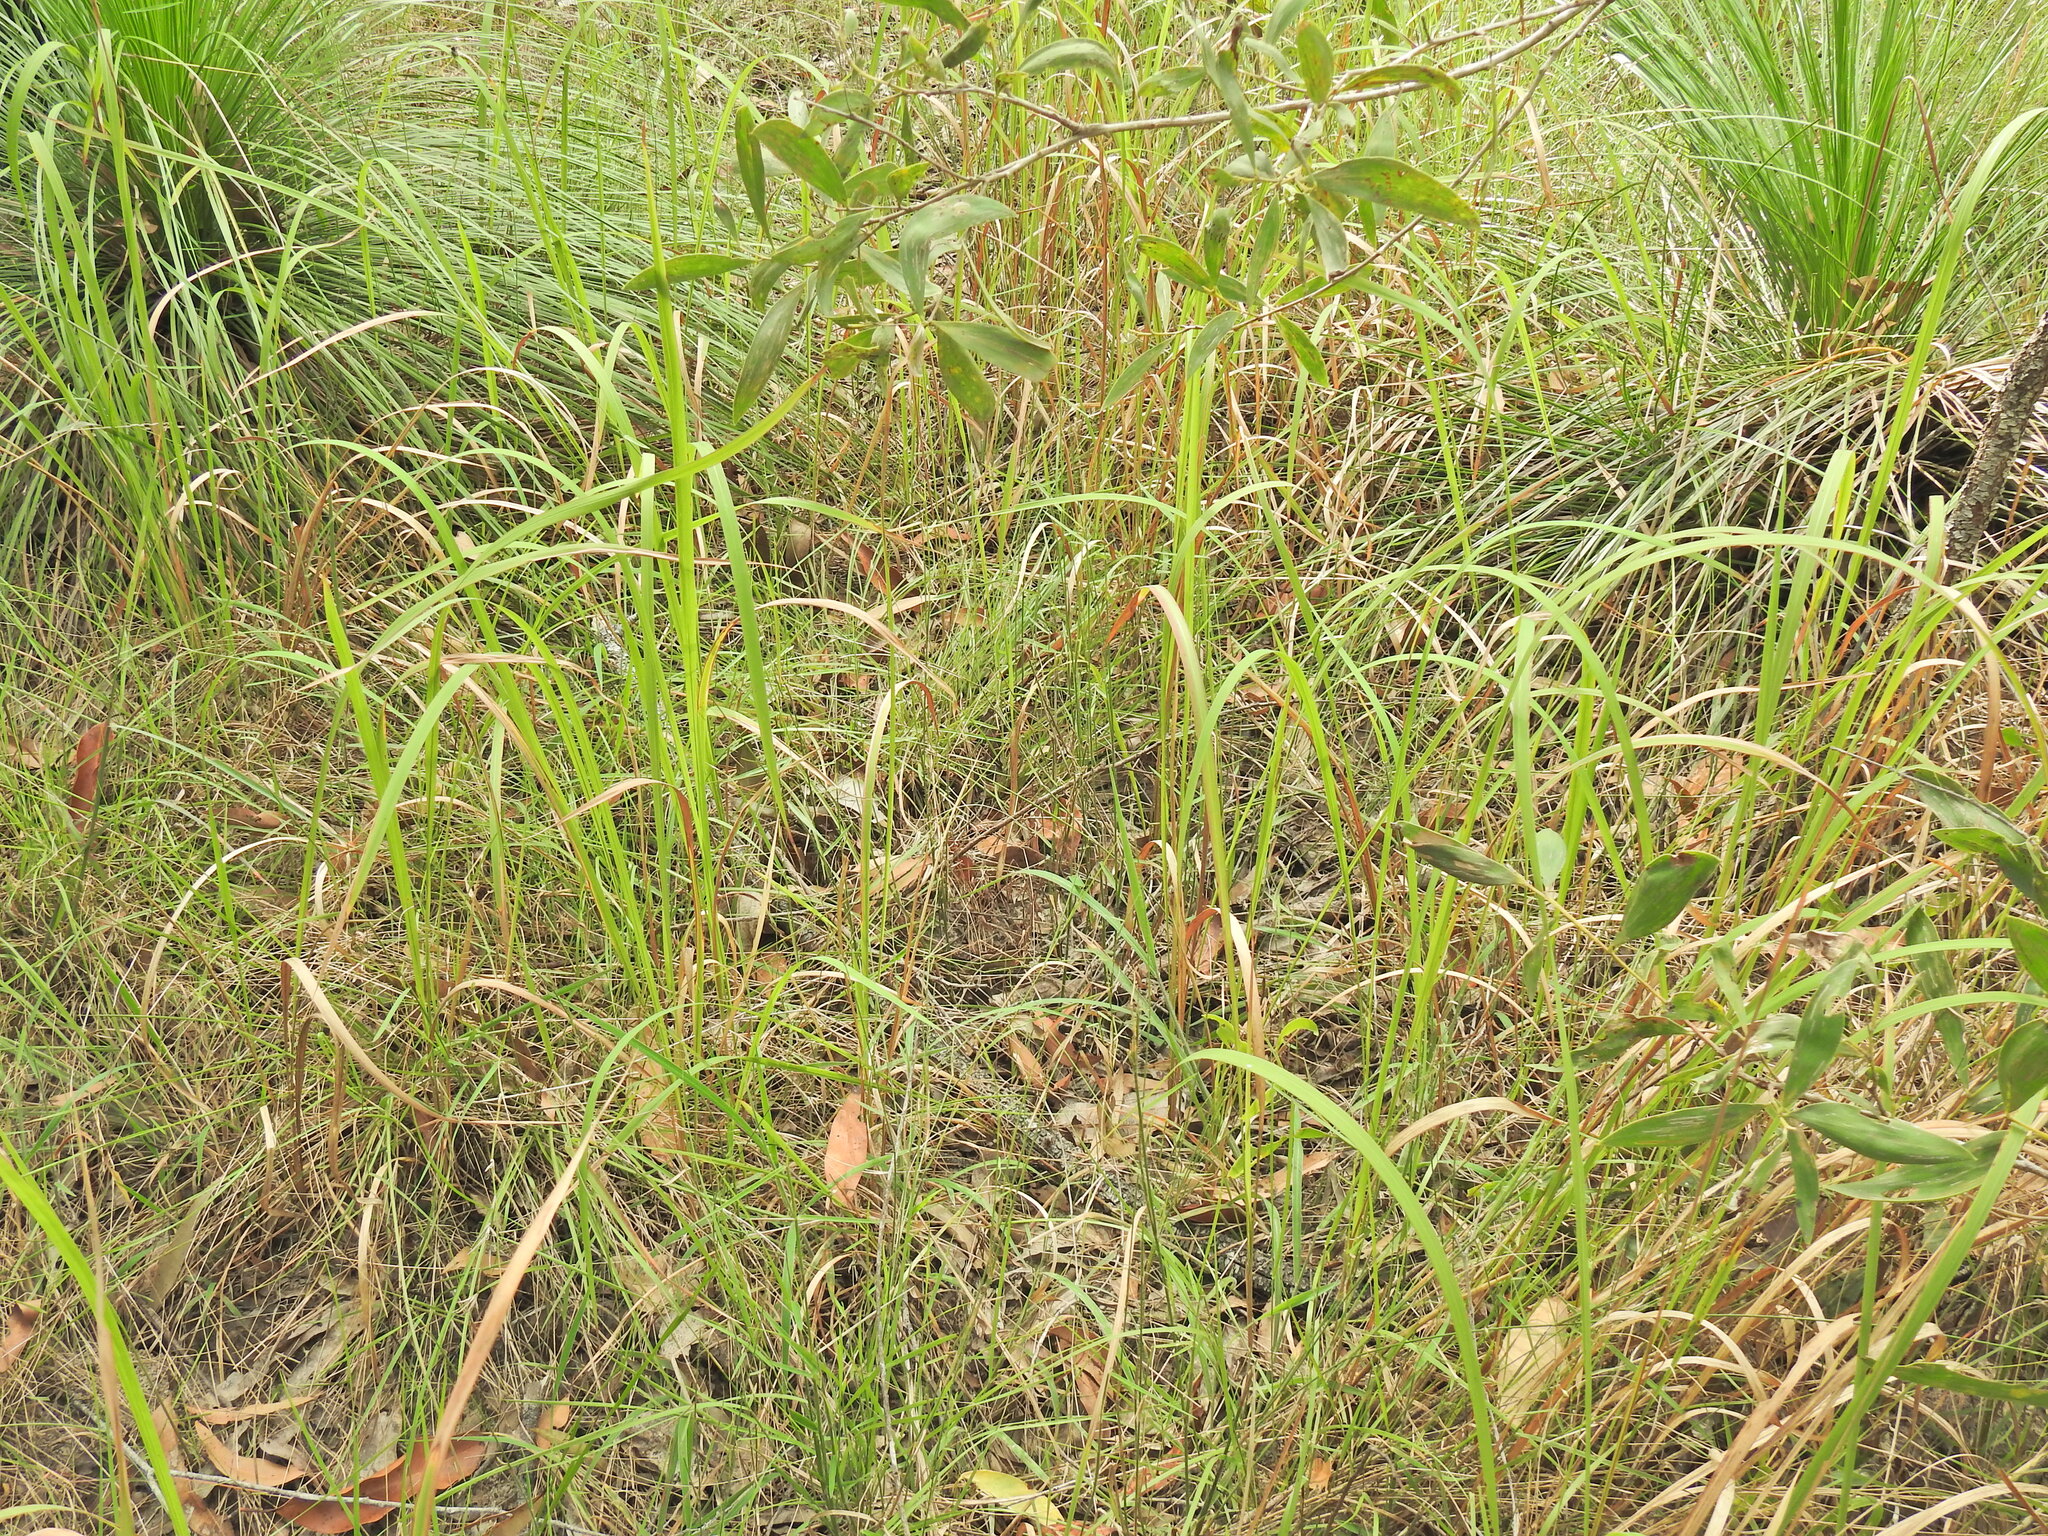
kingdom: Plantae
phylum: Tracheophyta
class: Liliopsida
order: Poales
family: Poaceae
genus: Imperata
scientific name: Imperata cylindrica
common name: Cogongrass
